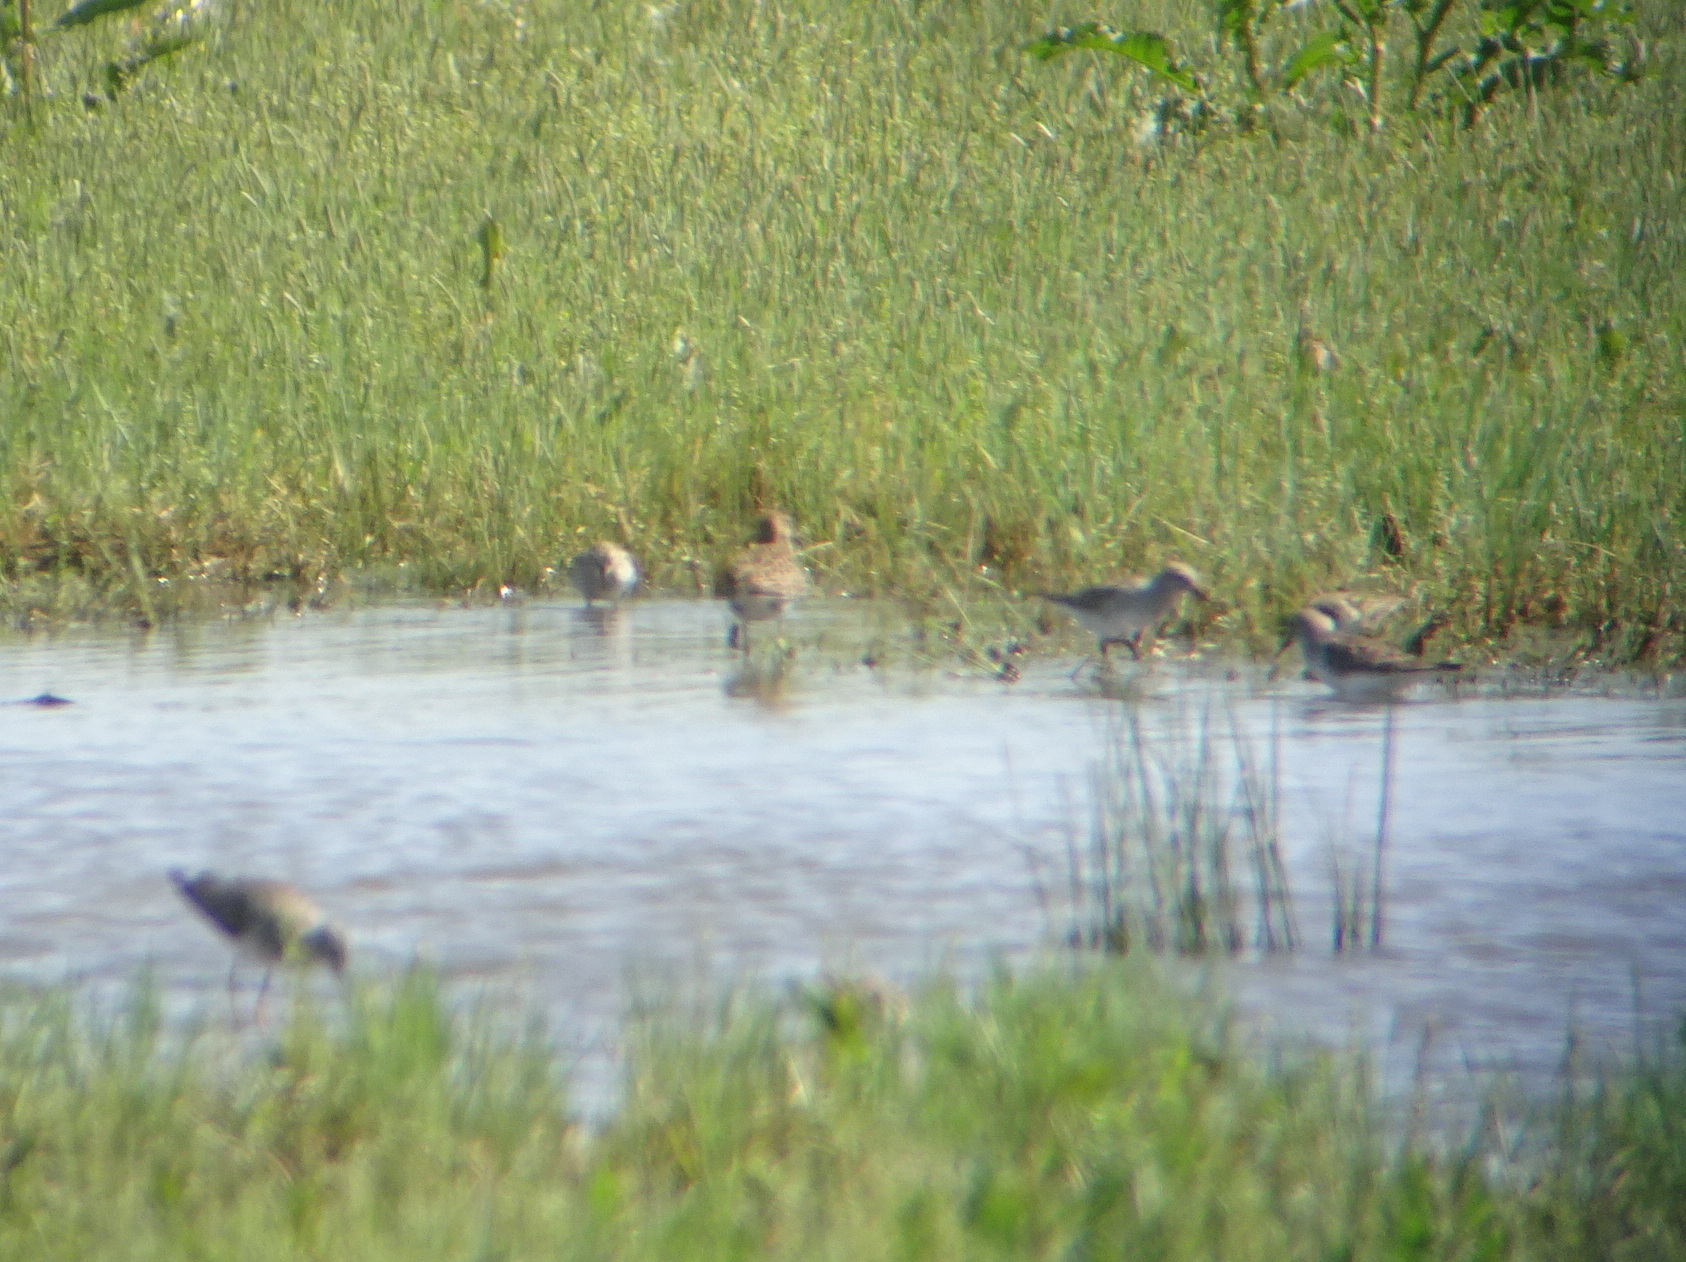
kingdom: Animalia
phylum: Chordata
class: Aves
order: Charadriiformes
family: Scolopacidae
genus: Calidris
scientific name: Calidris fuscicollis
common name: White-rumped sandpiper
